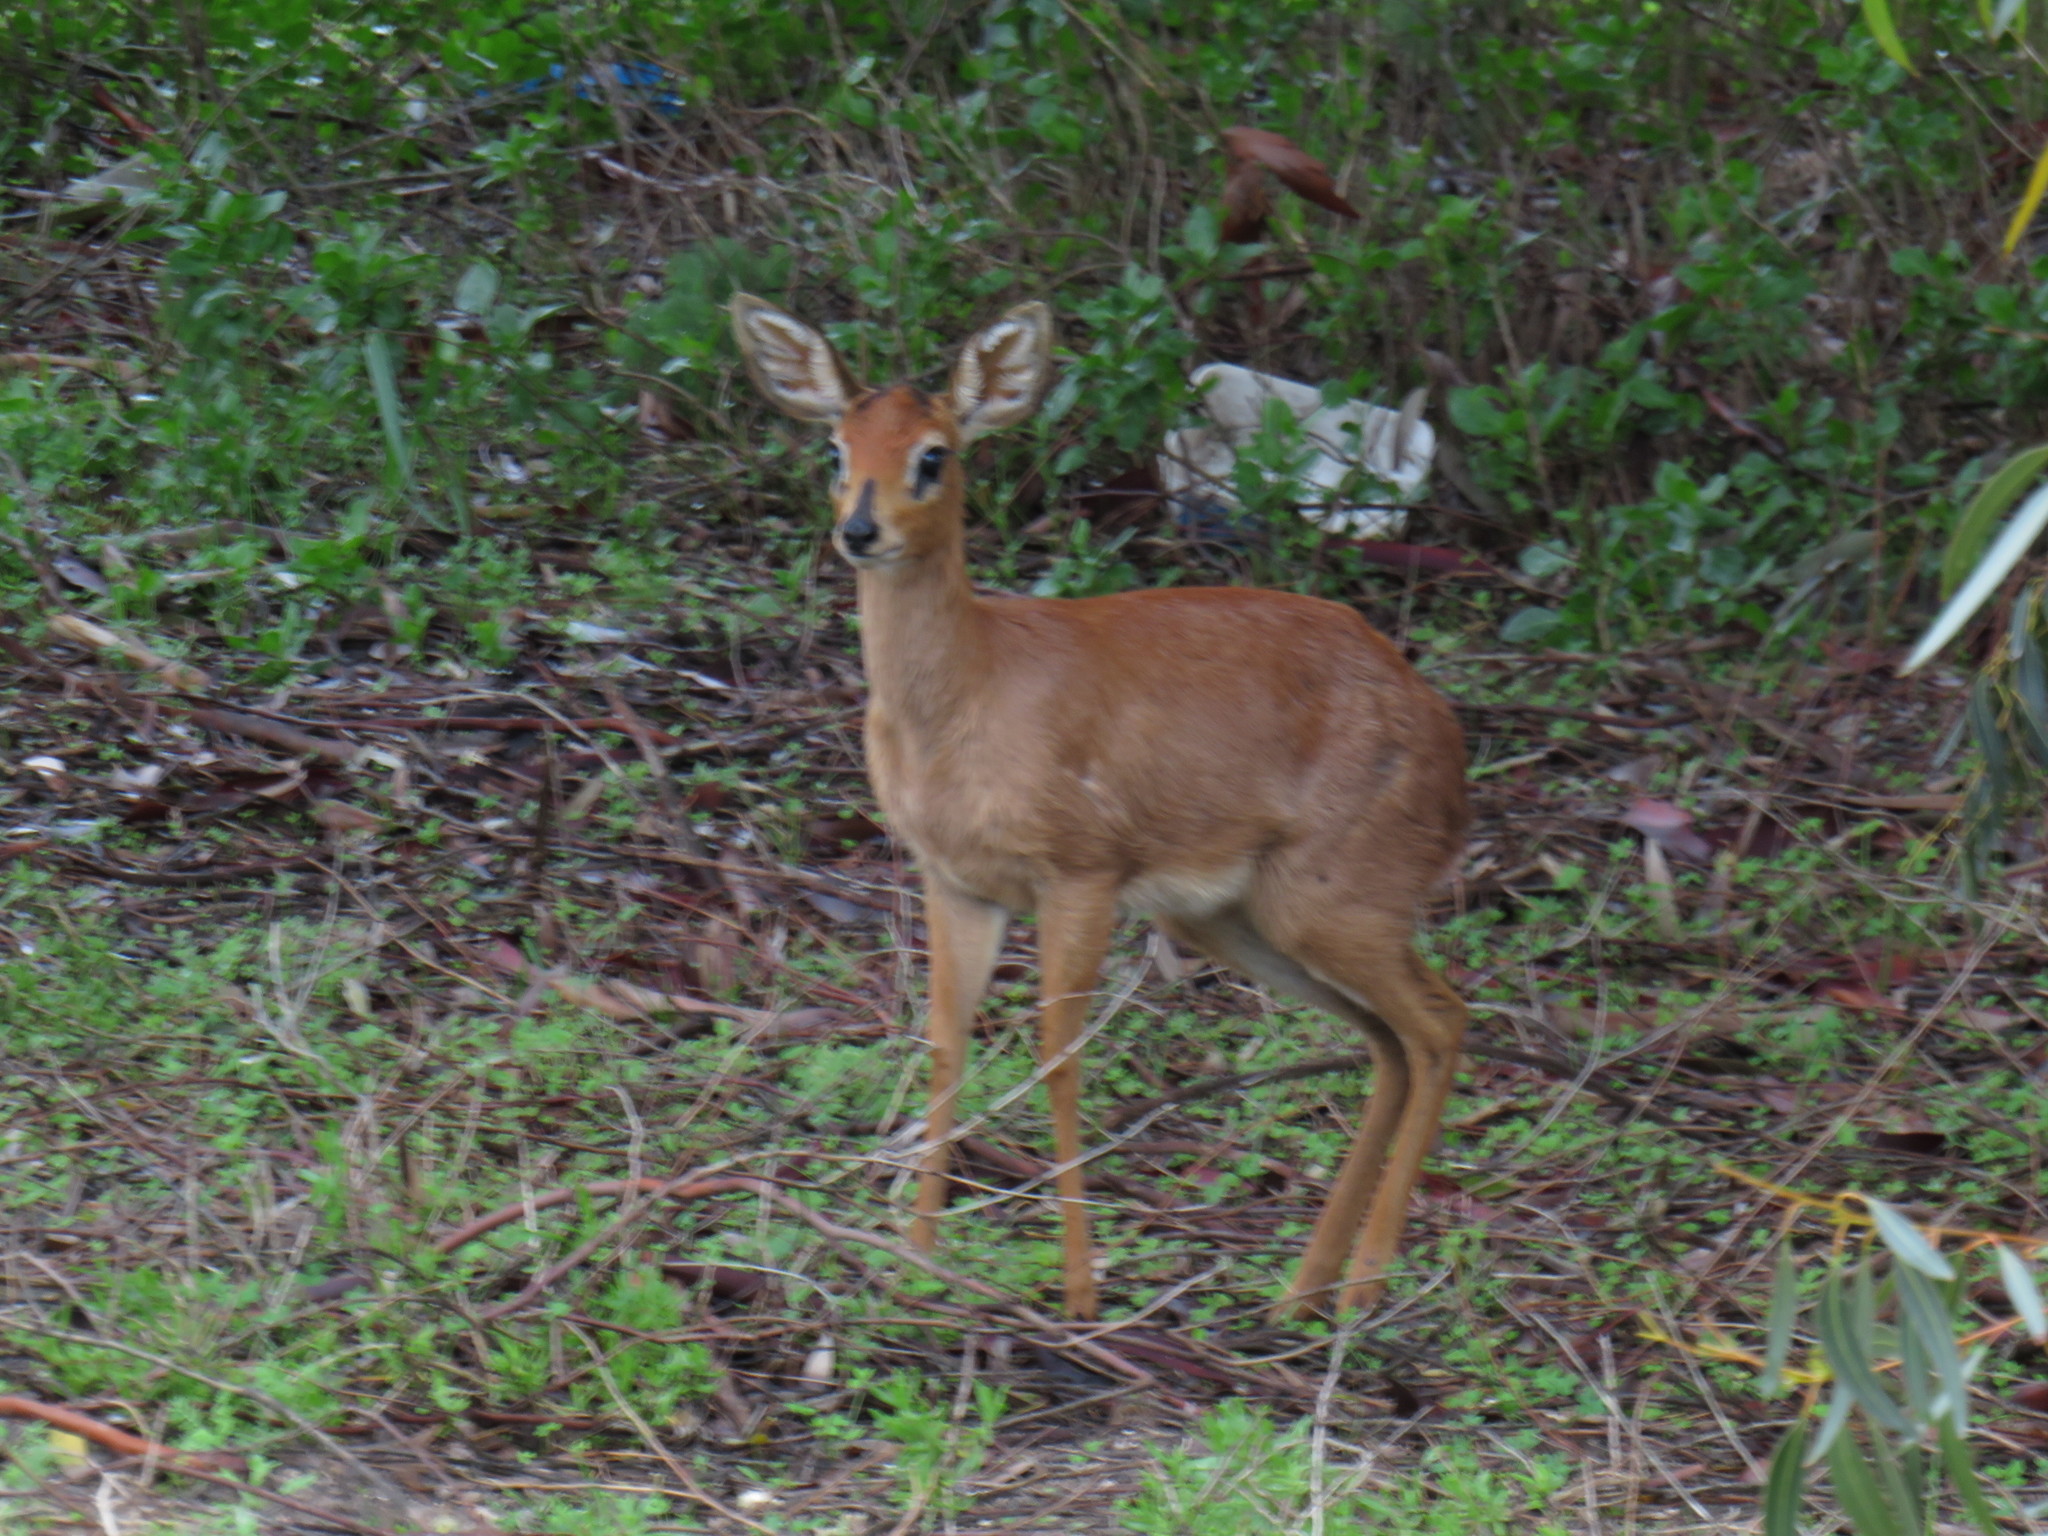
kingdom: Animalia
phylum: Chordata
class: Mammalia
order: Artiodactyla
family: Bovidae
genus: Raphicerus
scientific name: Raphicerus campestris
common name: Steenbok
